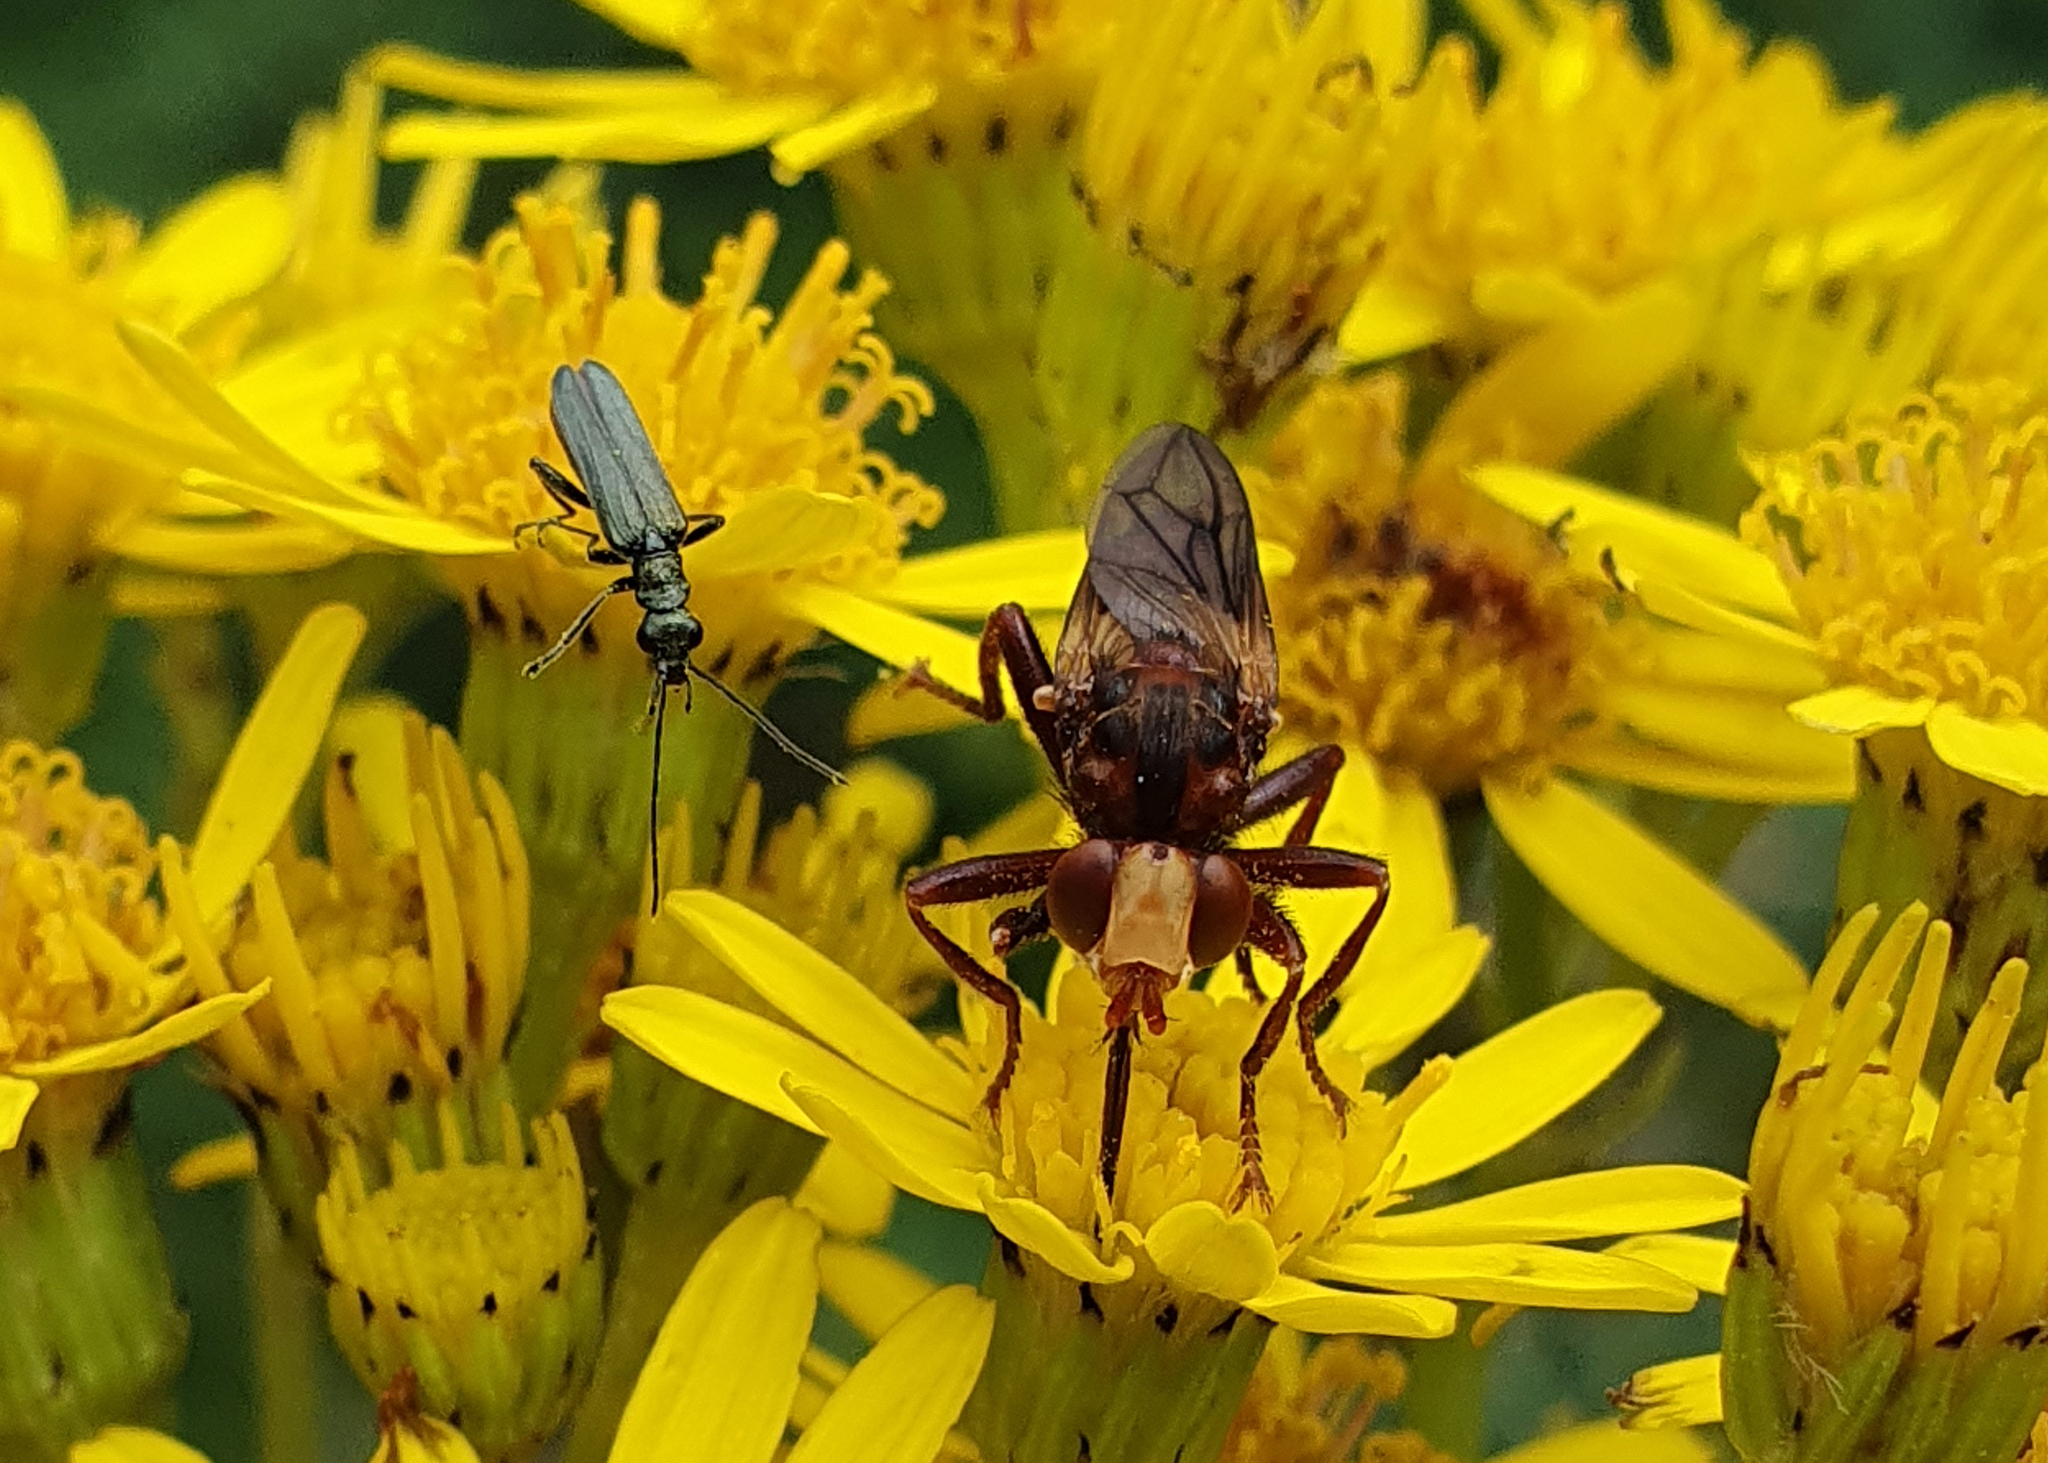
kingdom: Animalia
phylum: Arthropoda
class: Insecta
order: Diptera
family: Conopidae
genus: Sicus
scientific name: Sicus ferrugineus
